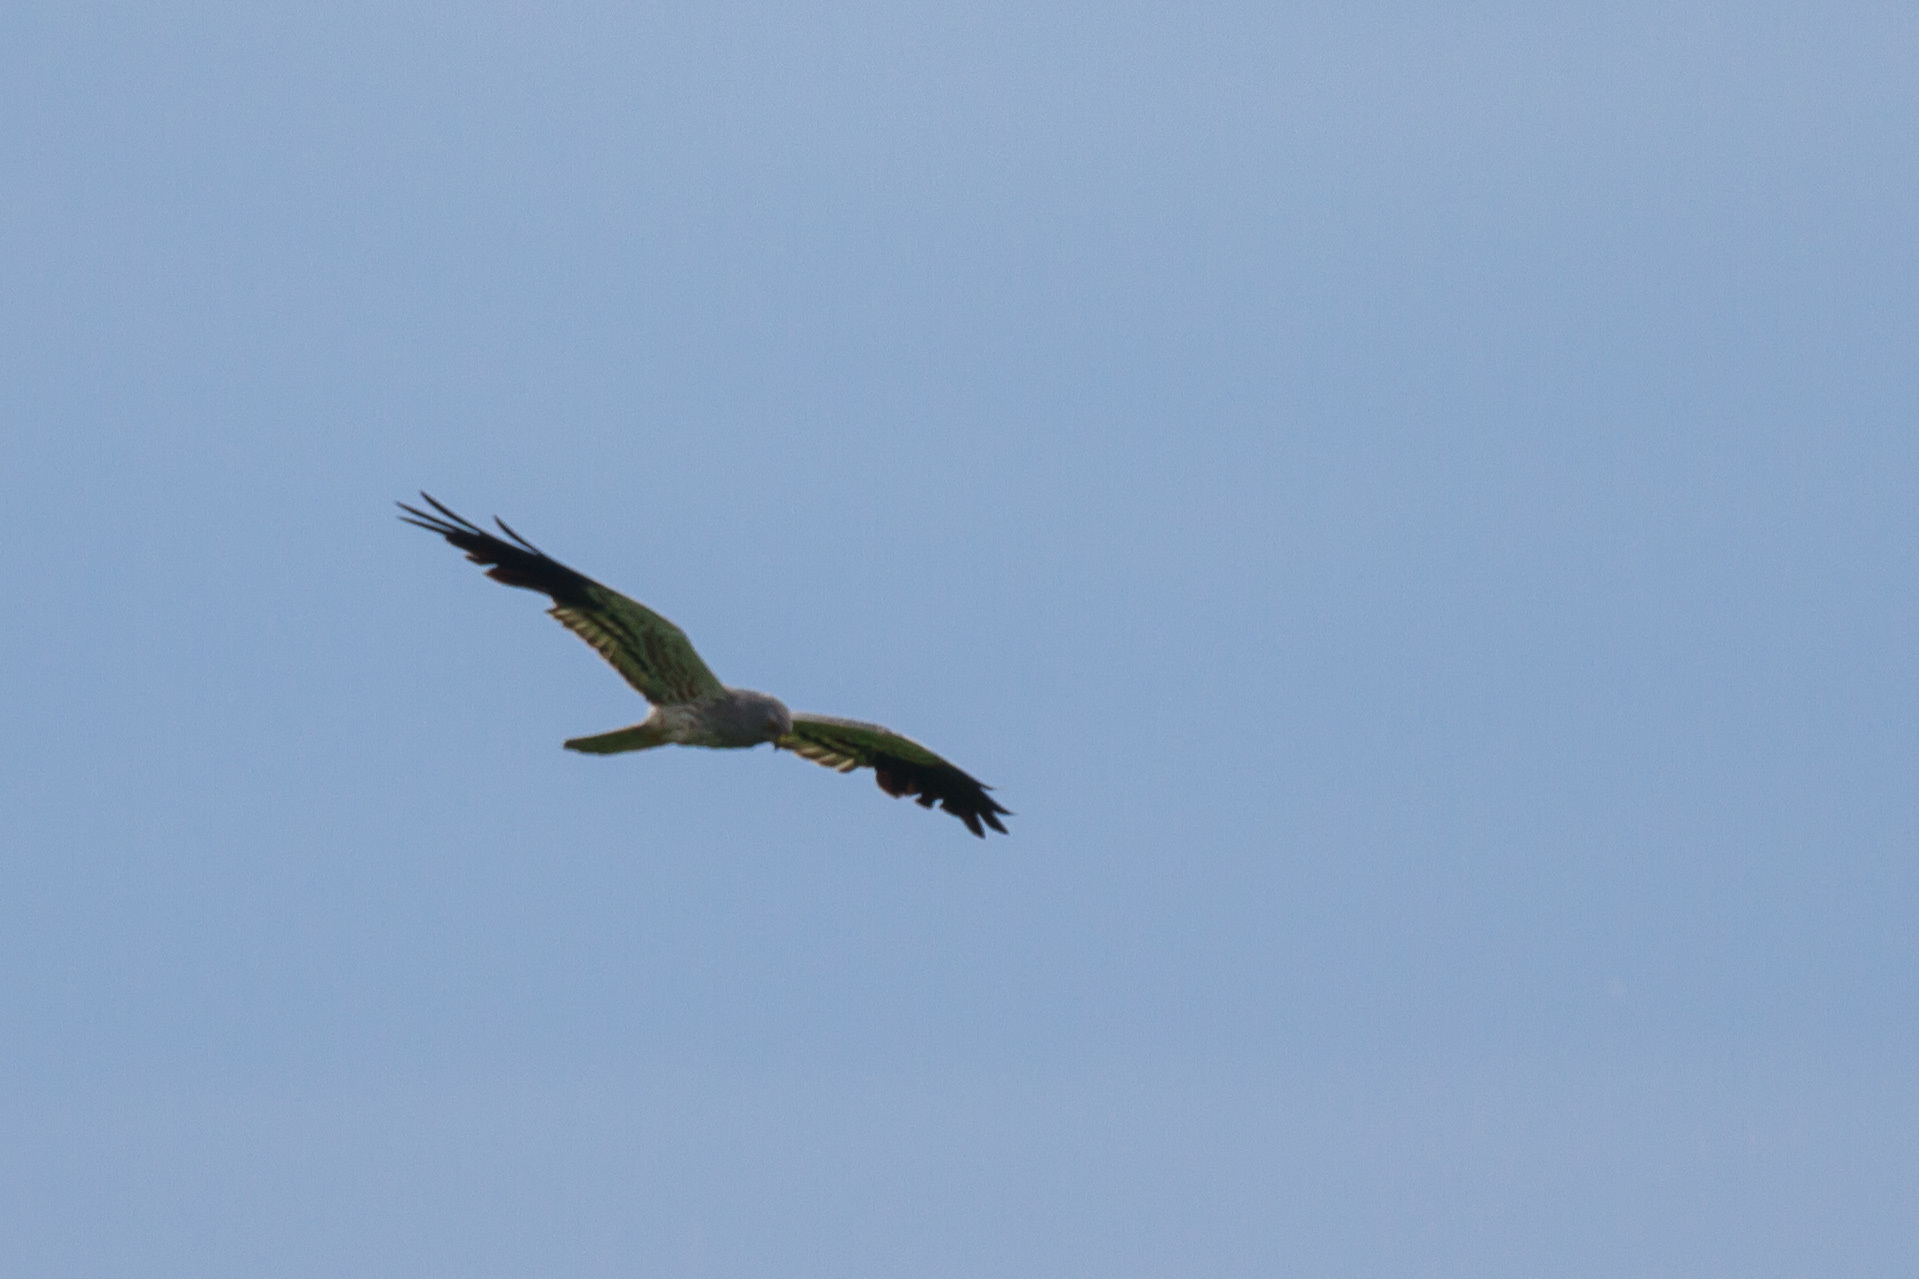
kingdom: Animalia
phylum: Chordata
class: Aves
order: Accipitriformes
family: Accipitridae
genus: Circus
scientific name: Circus pygargus
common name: Montagu's harrier
